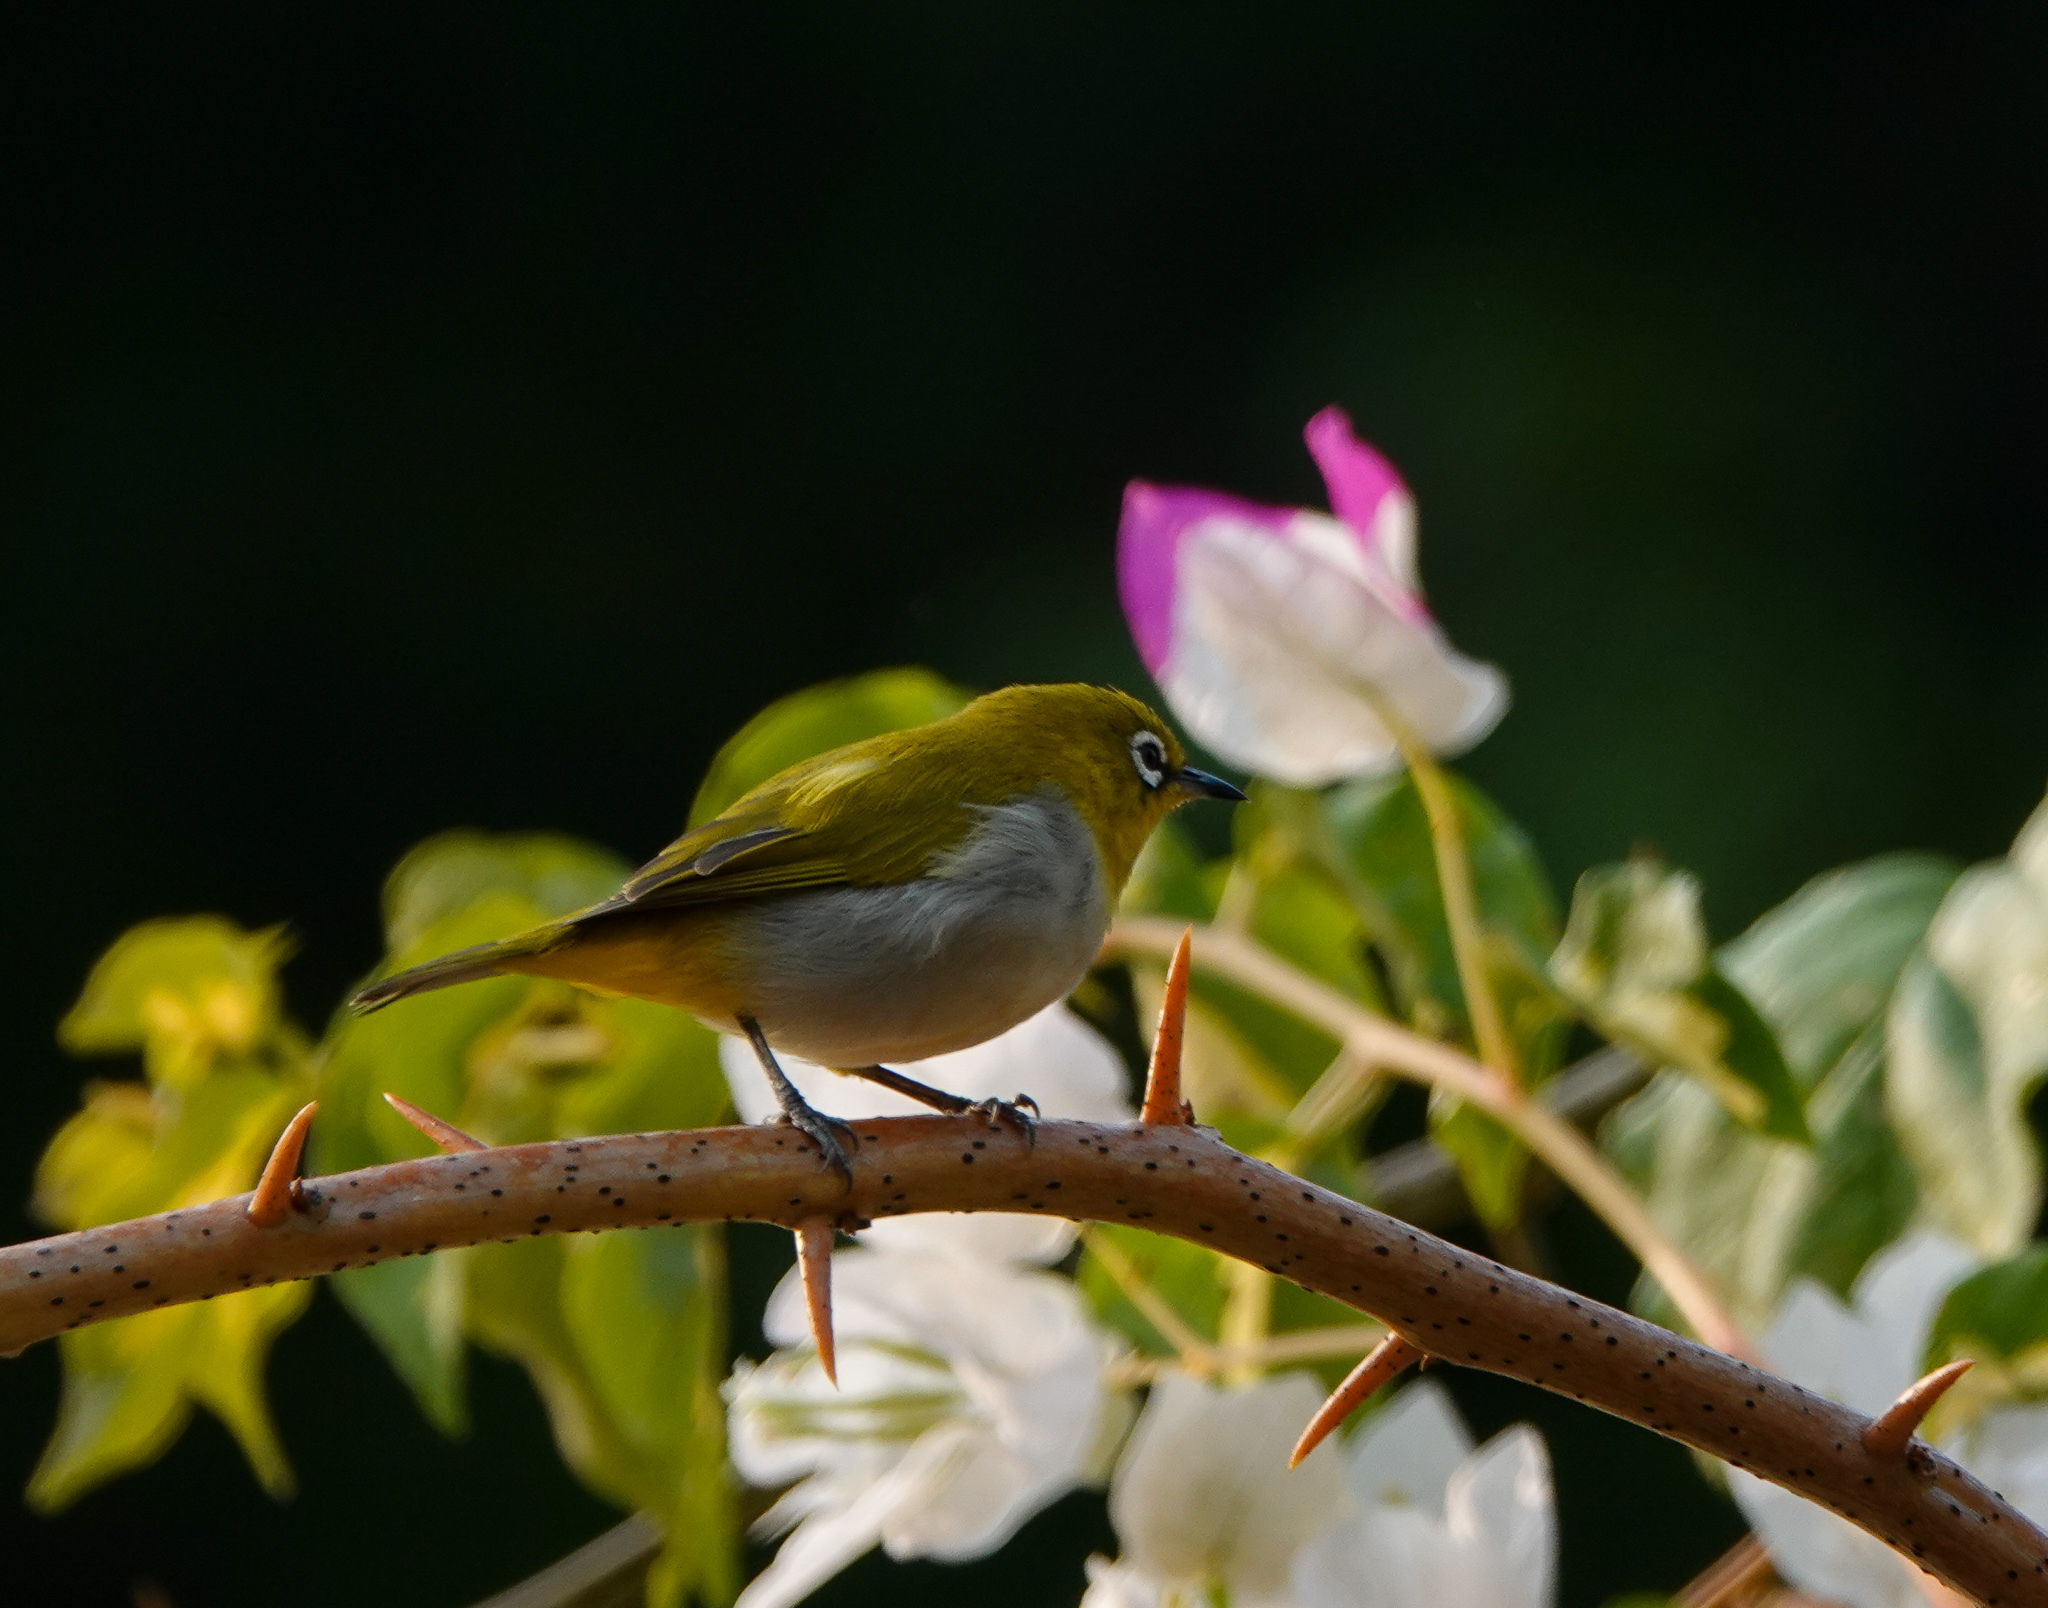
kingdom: Animalia
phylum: Chordata
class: Aves
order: Passeriformes
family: Zosteropidae
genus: Zosterops
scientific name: Zosterops palpebrosus
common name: Oriental white-eye
